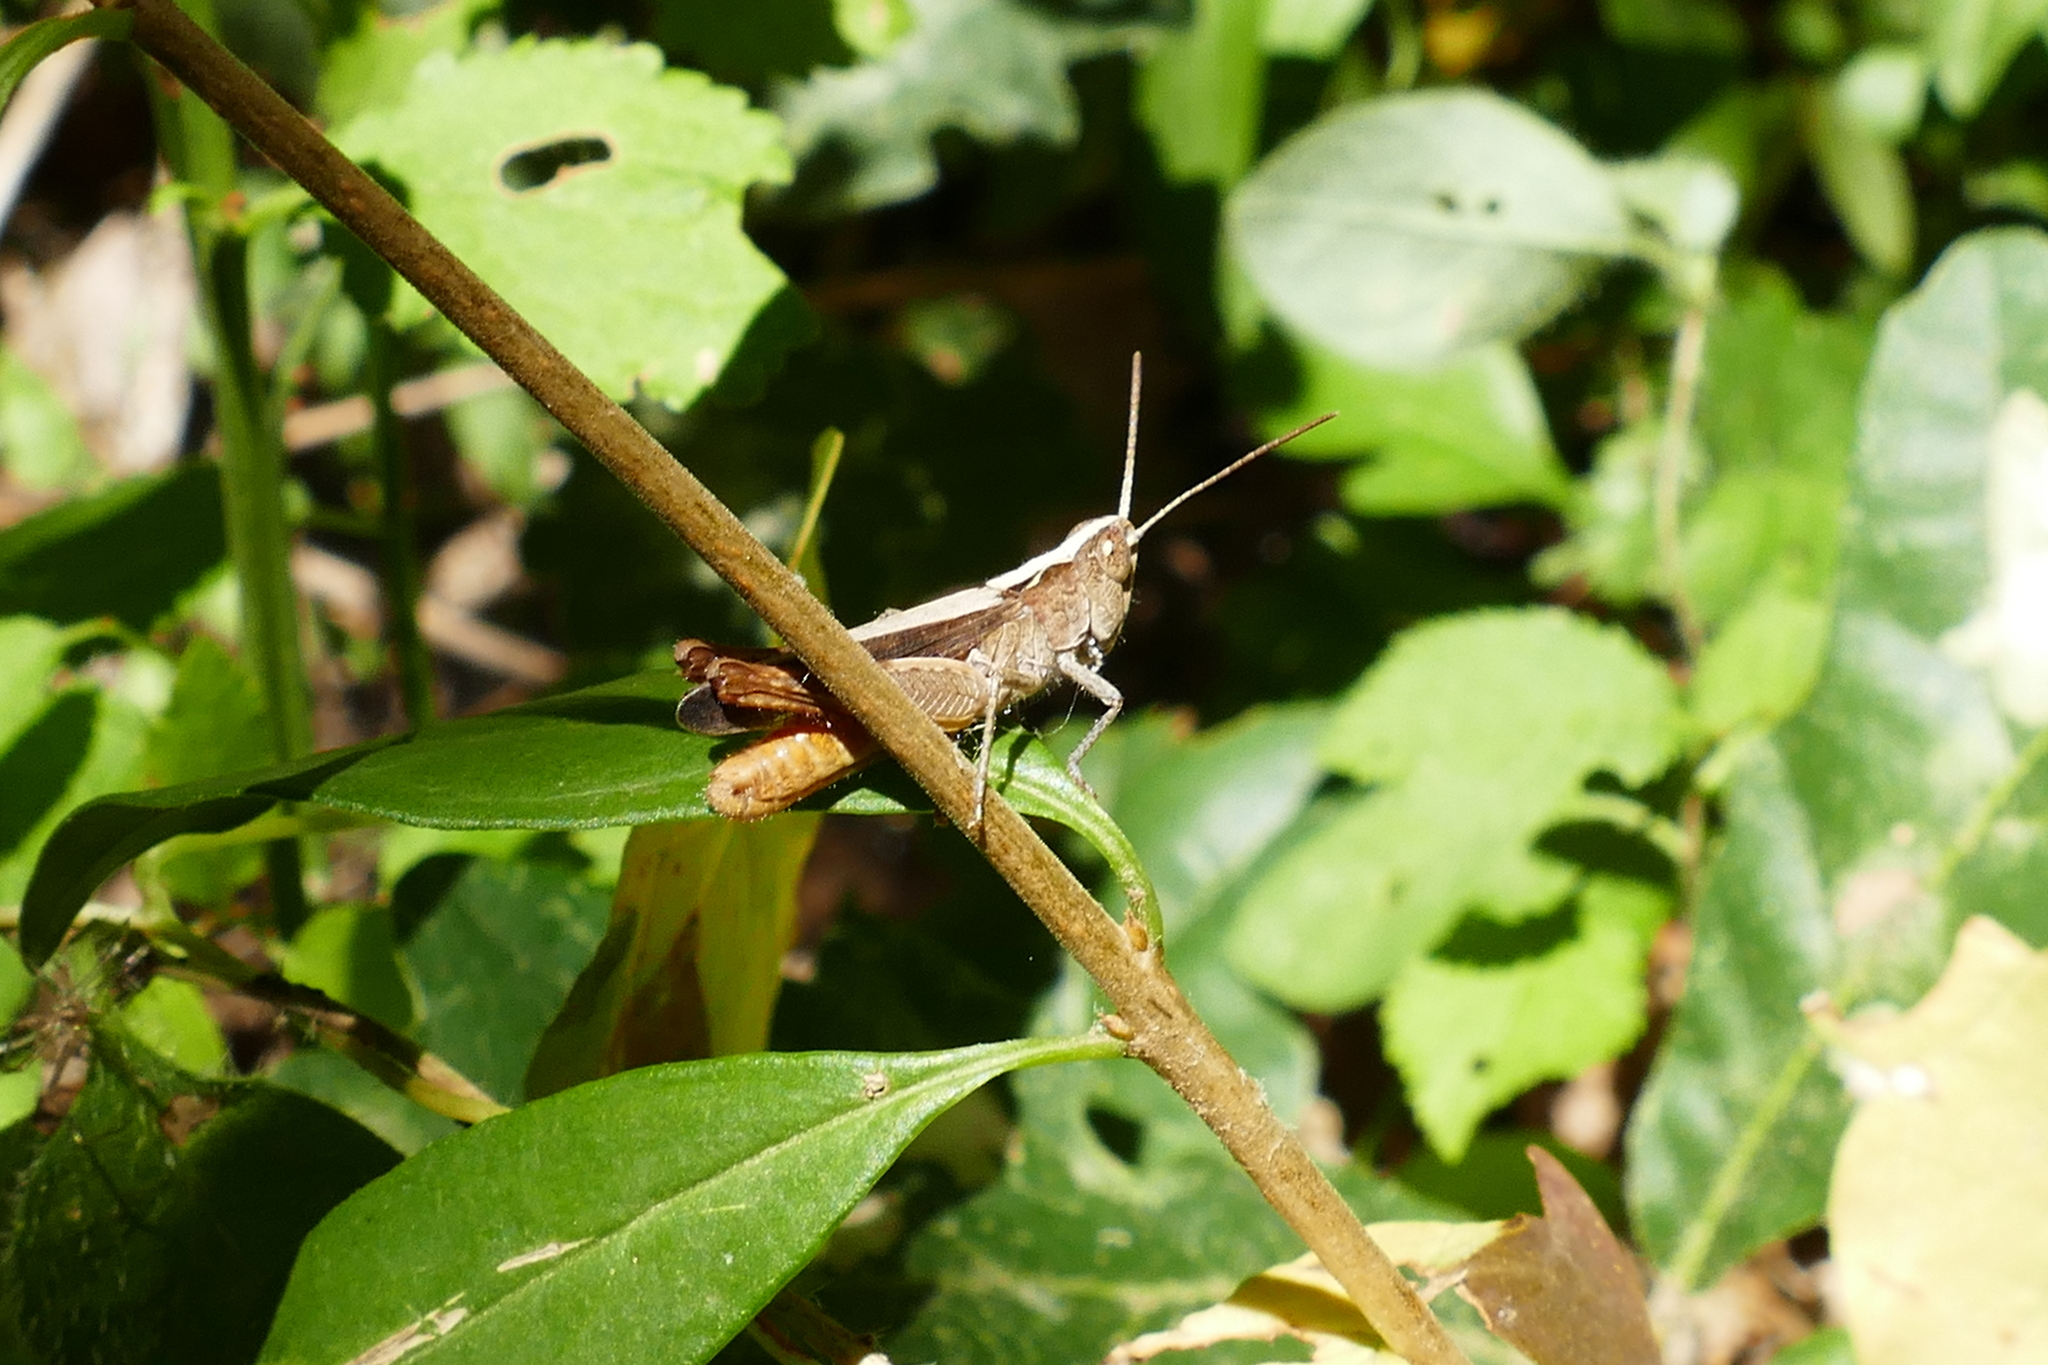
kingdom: Animalia
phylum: Arthropoda
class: Insecta
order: Orthoptera
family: Acrididae
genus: Chorthippus
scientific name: Chorthippus vagans
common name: Heath grasshopper
